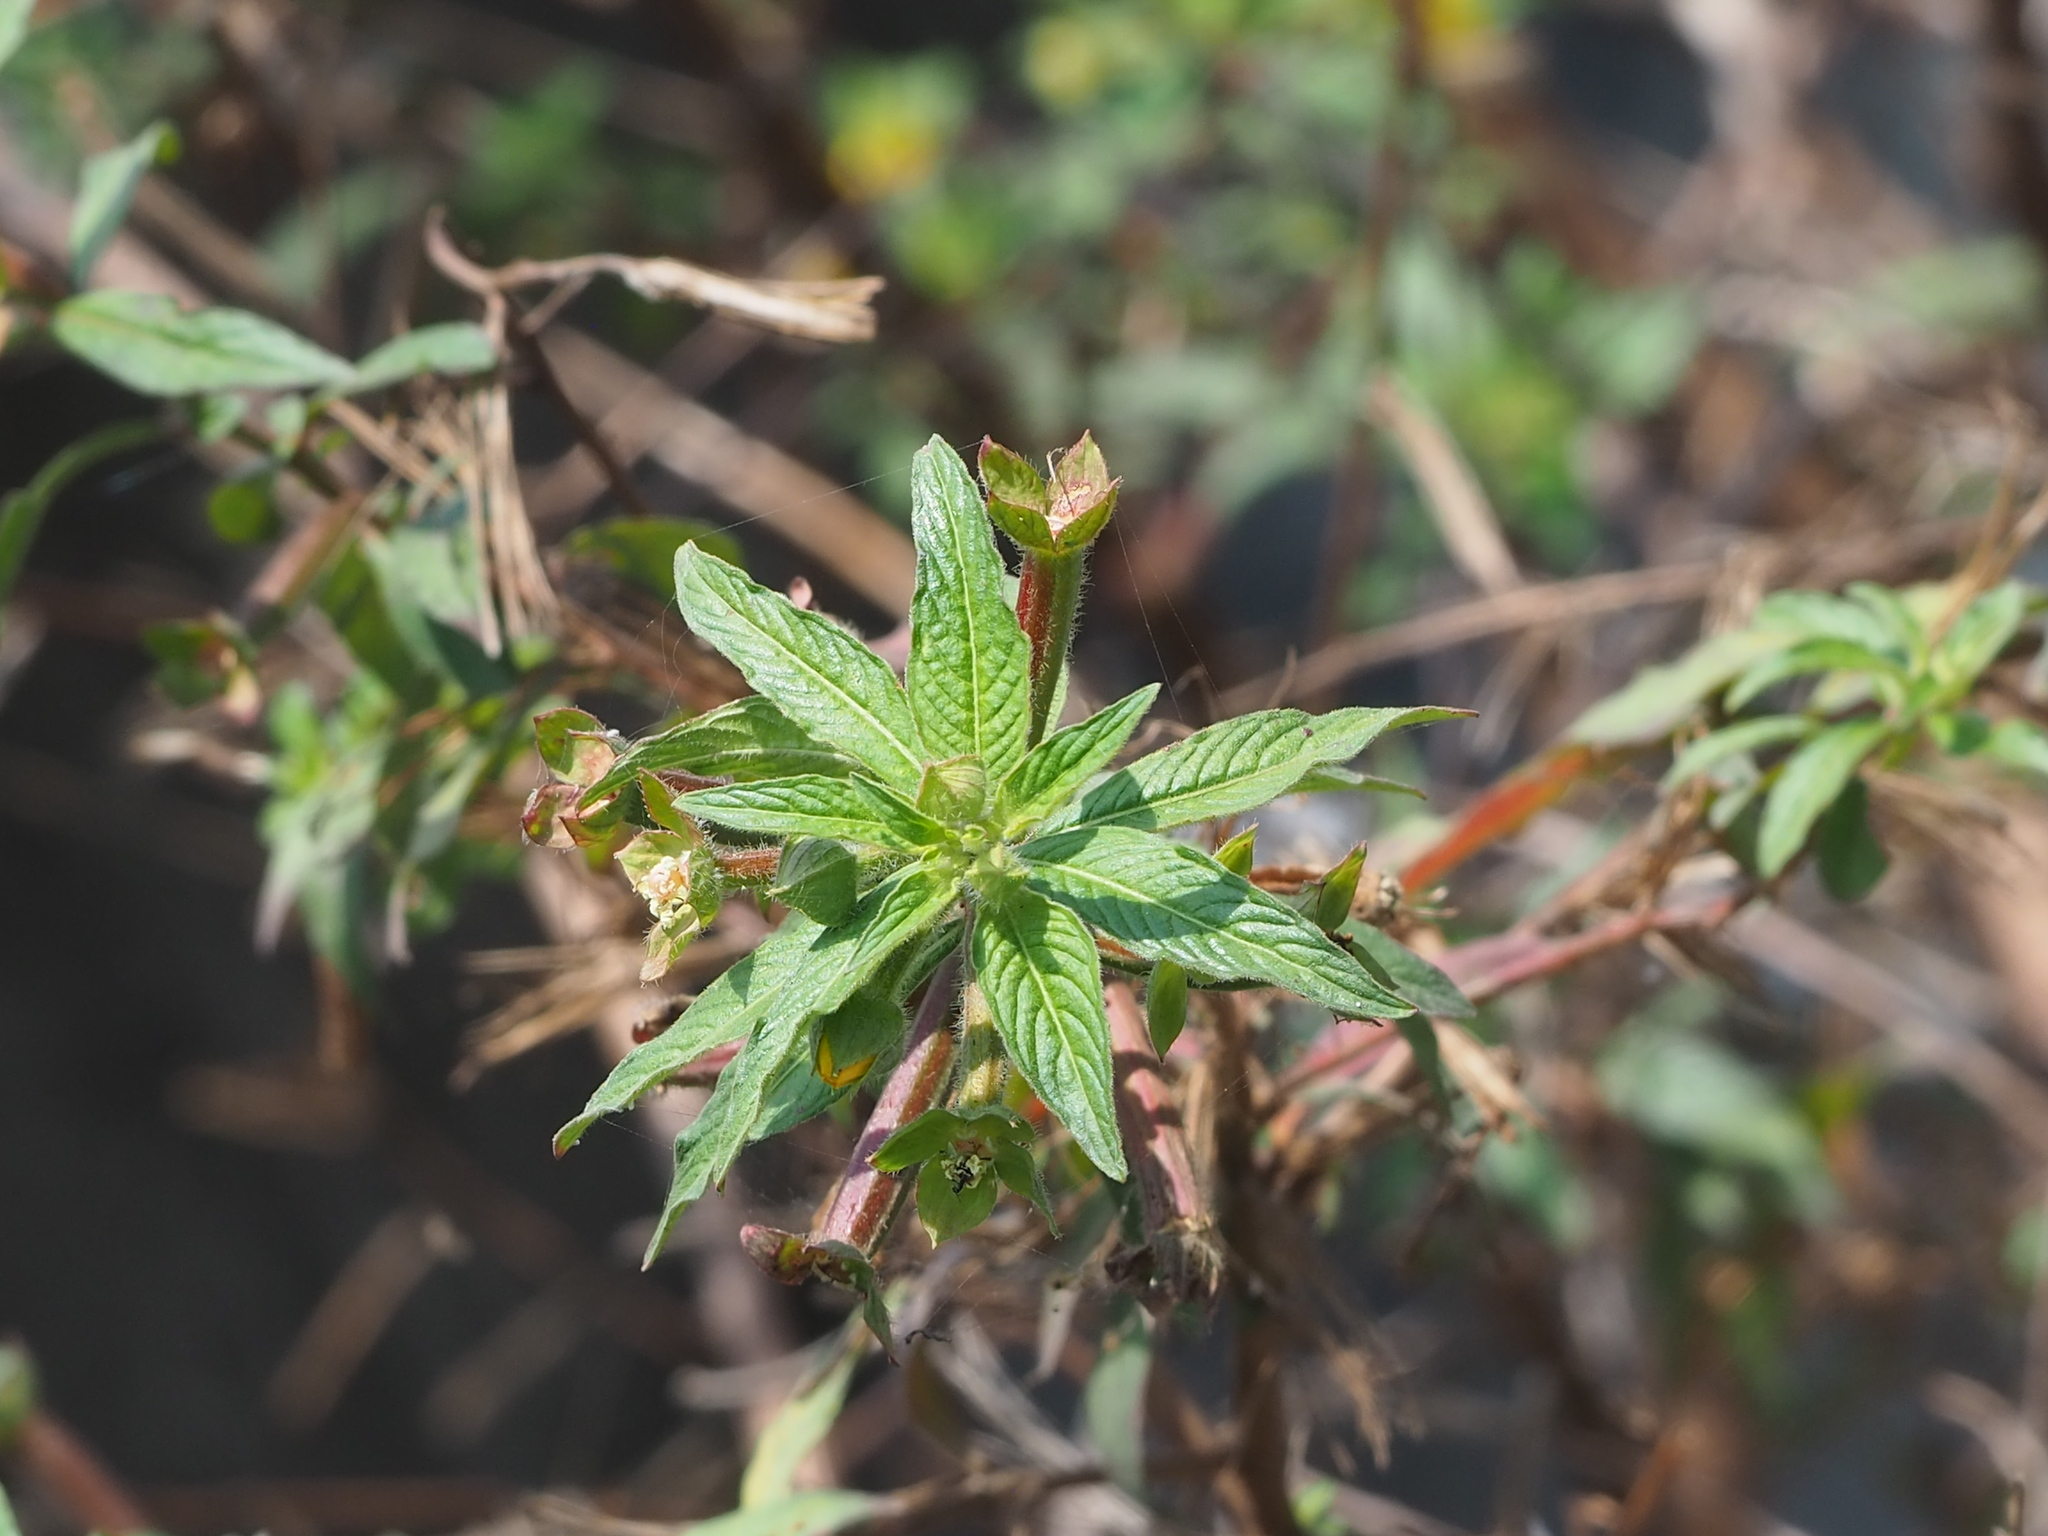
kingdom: Plantae
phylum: Tracheophyta
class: Magnoliopsida
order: Myrtales
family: Onagraceae
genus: Ludwigia
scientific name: Ludwigia octovalvis
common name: Water-primrose
